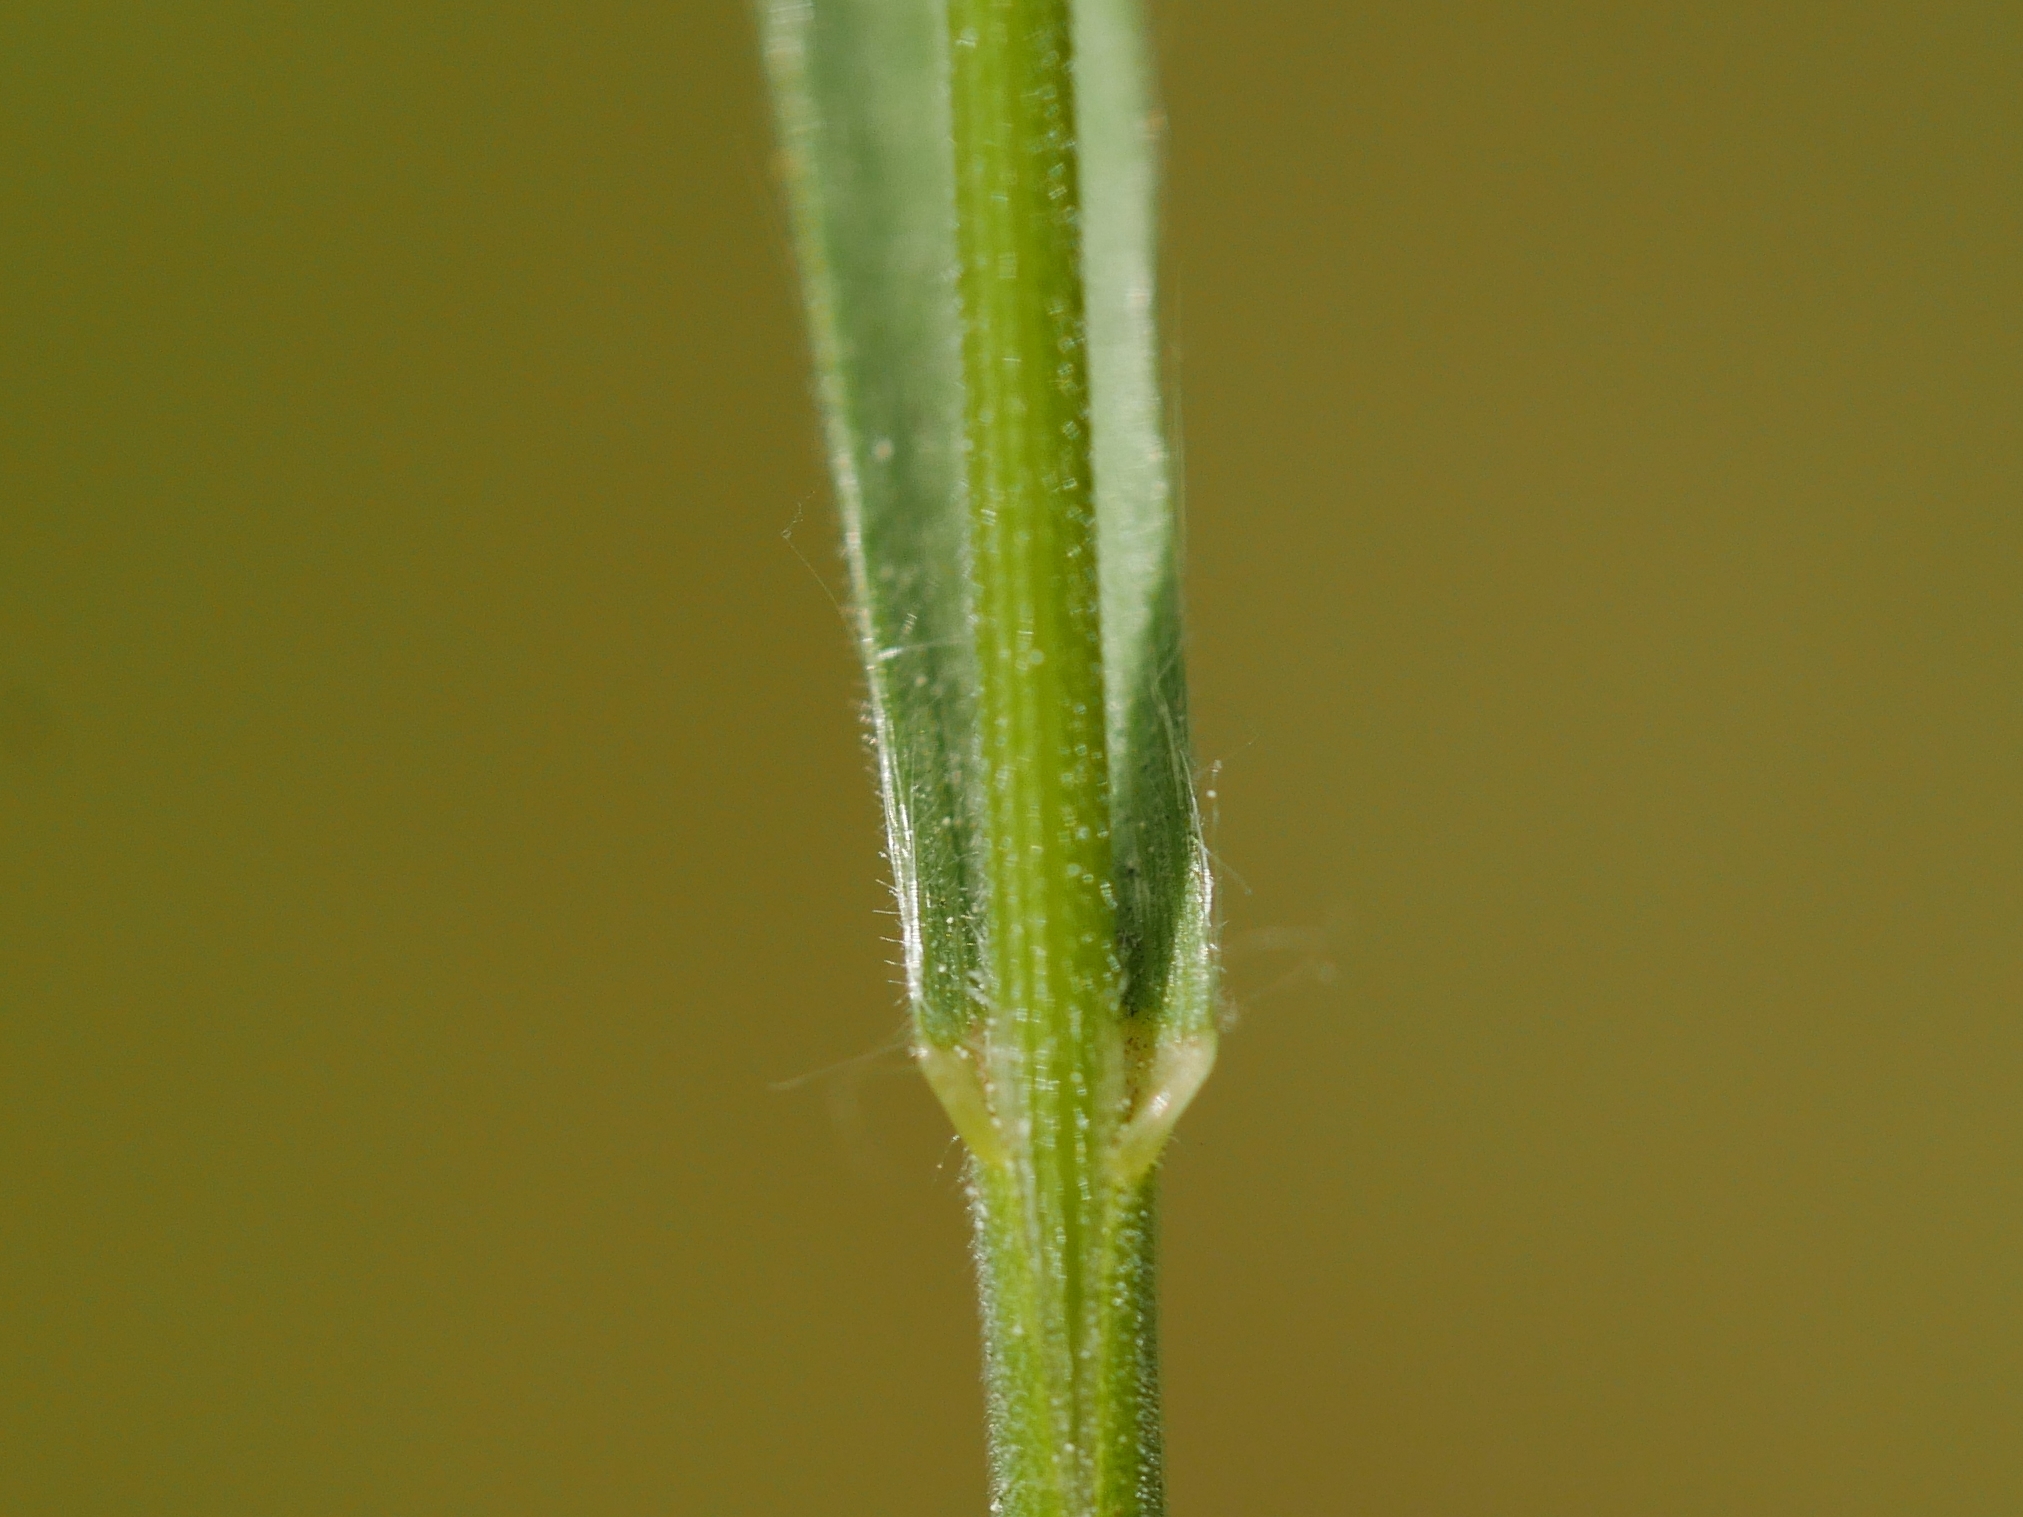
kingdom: Plantae
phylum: Tracheophyta
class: Liliopsida
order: Poales
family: Poaceae
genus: Bromus
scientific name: Bromus hordeaceus
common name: Soft brome
